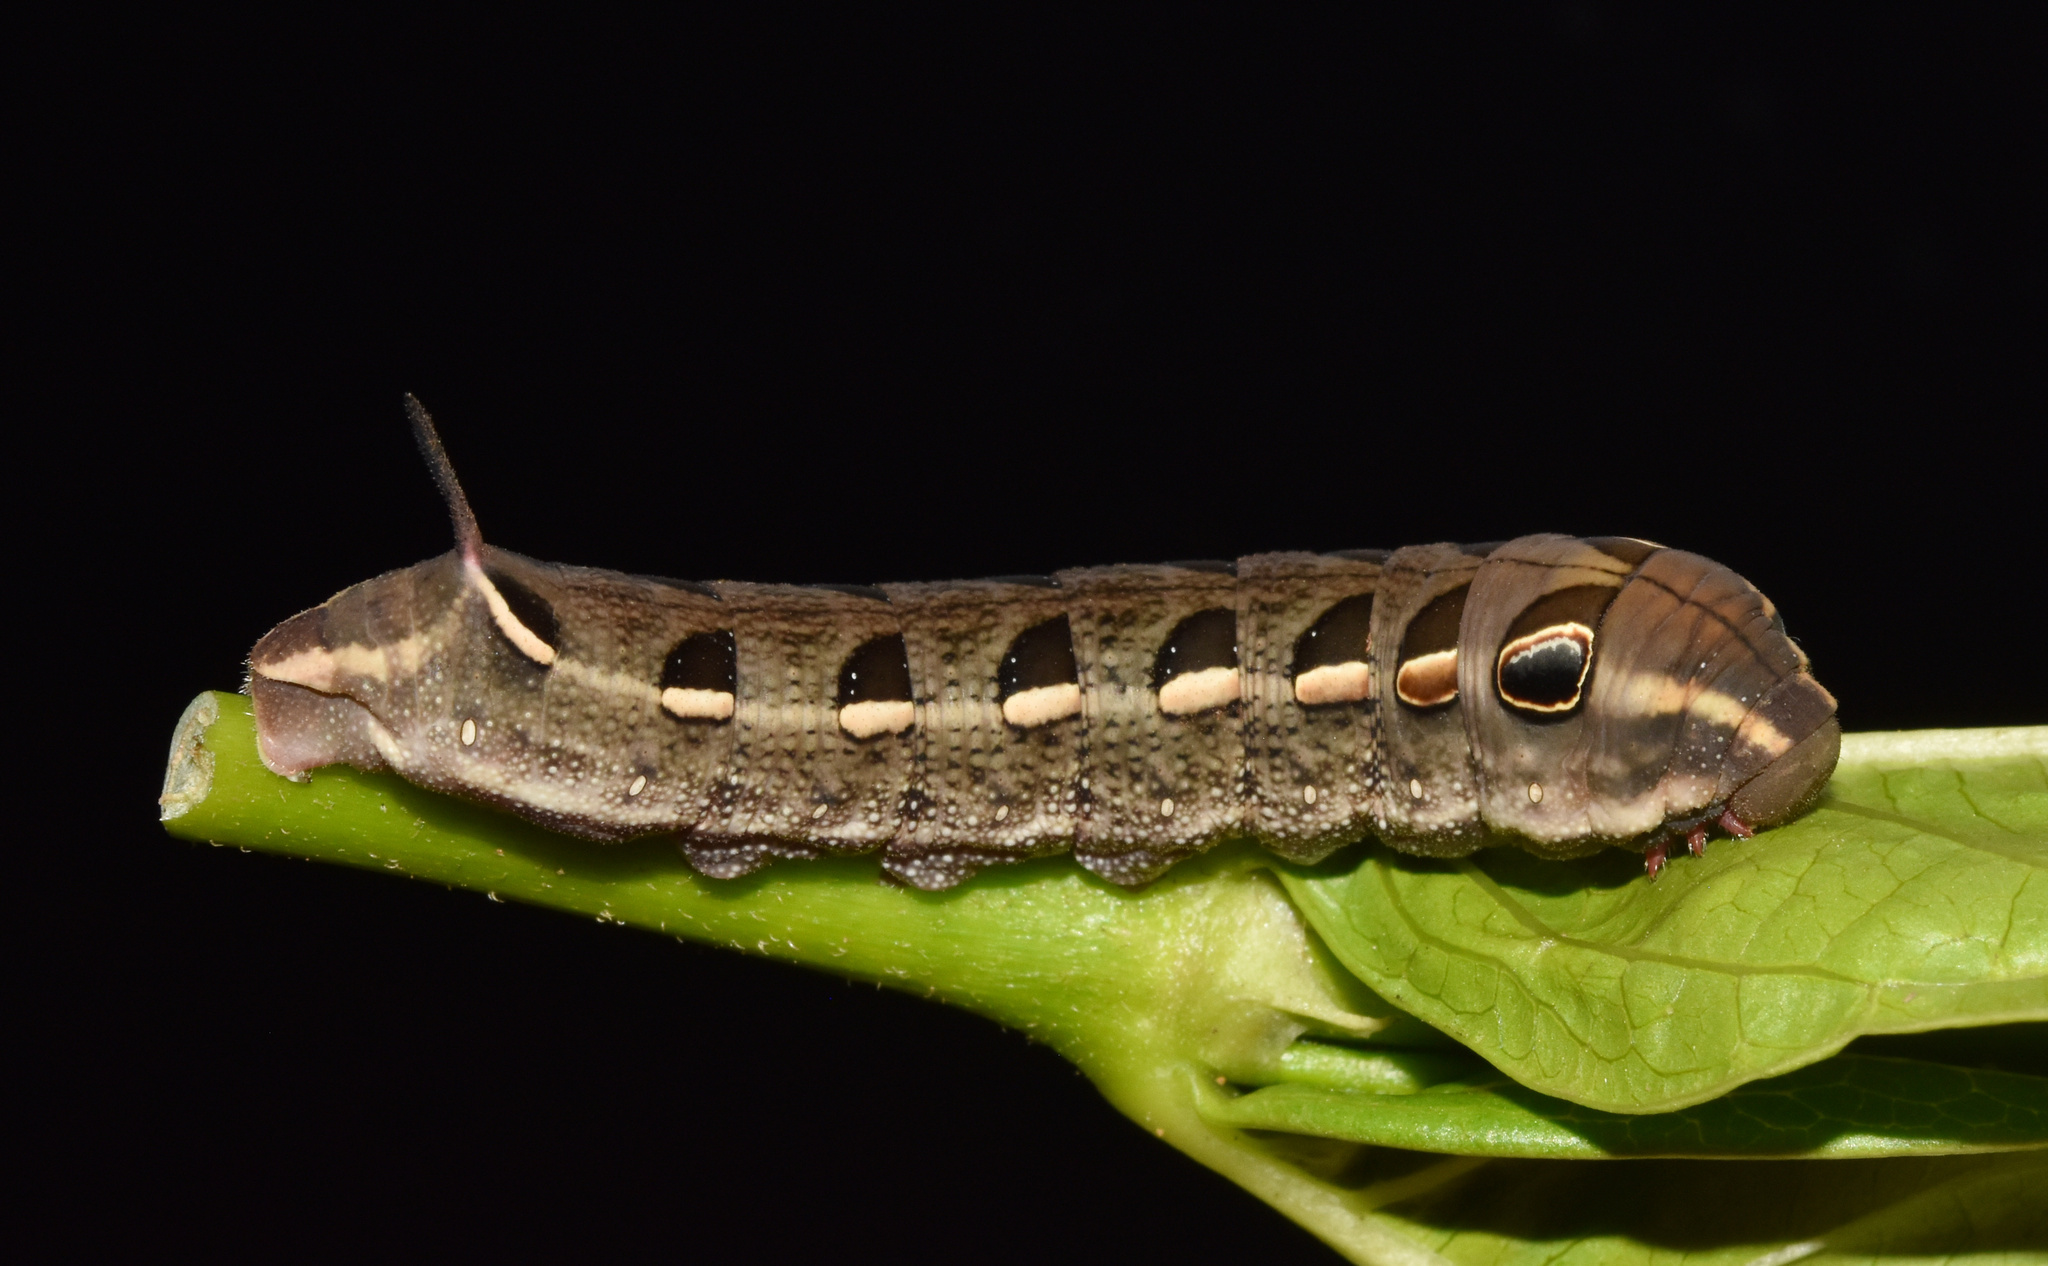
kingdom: Animalia
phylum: Arthropoda
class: Insecta
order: Lepidoptera
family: Sphingidae
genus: Basiothia
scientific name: Basiothia medea
